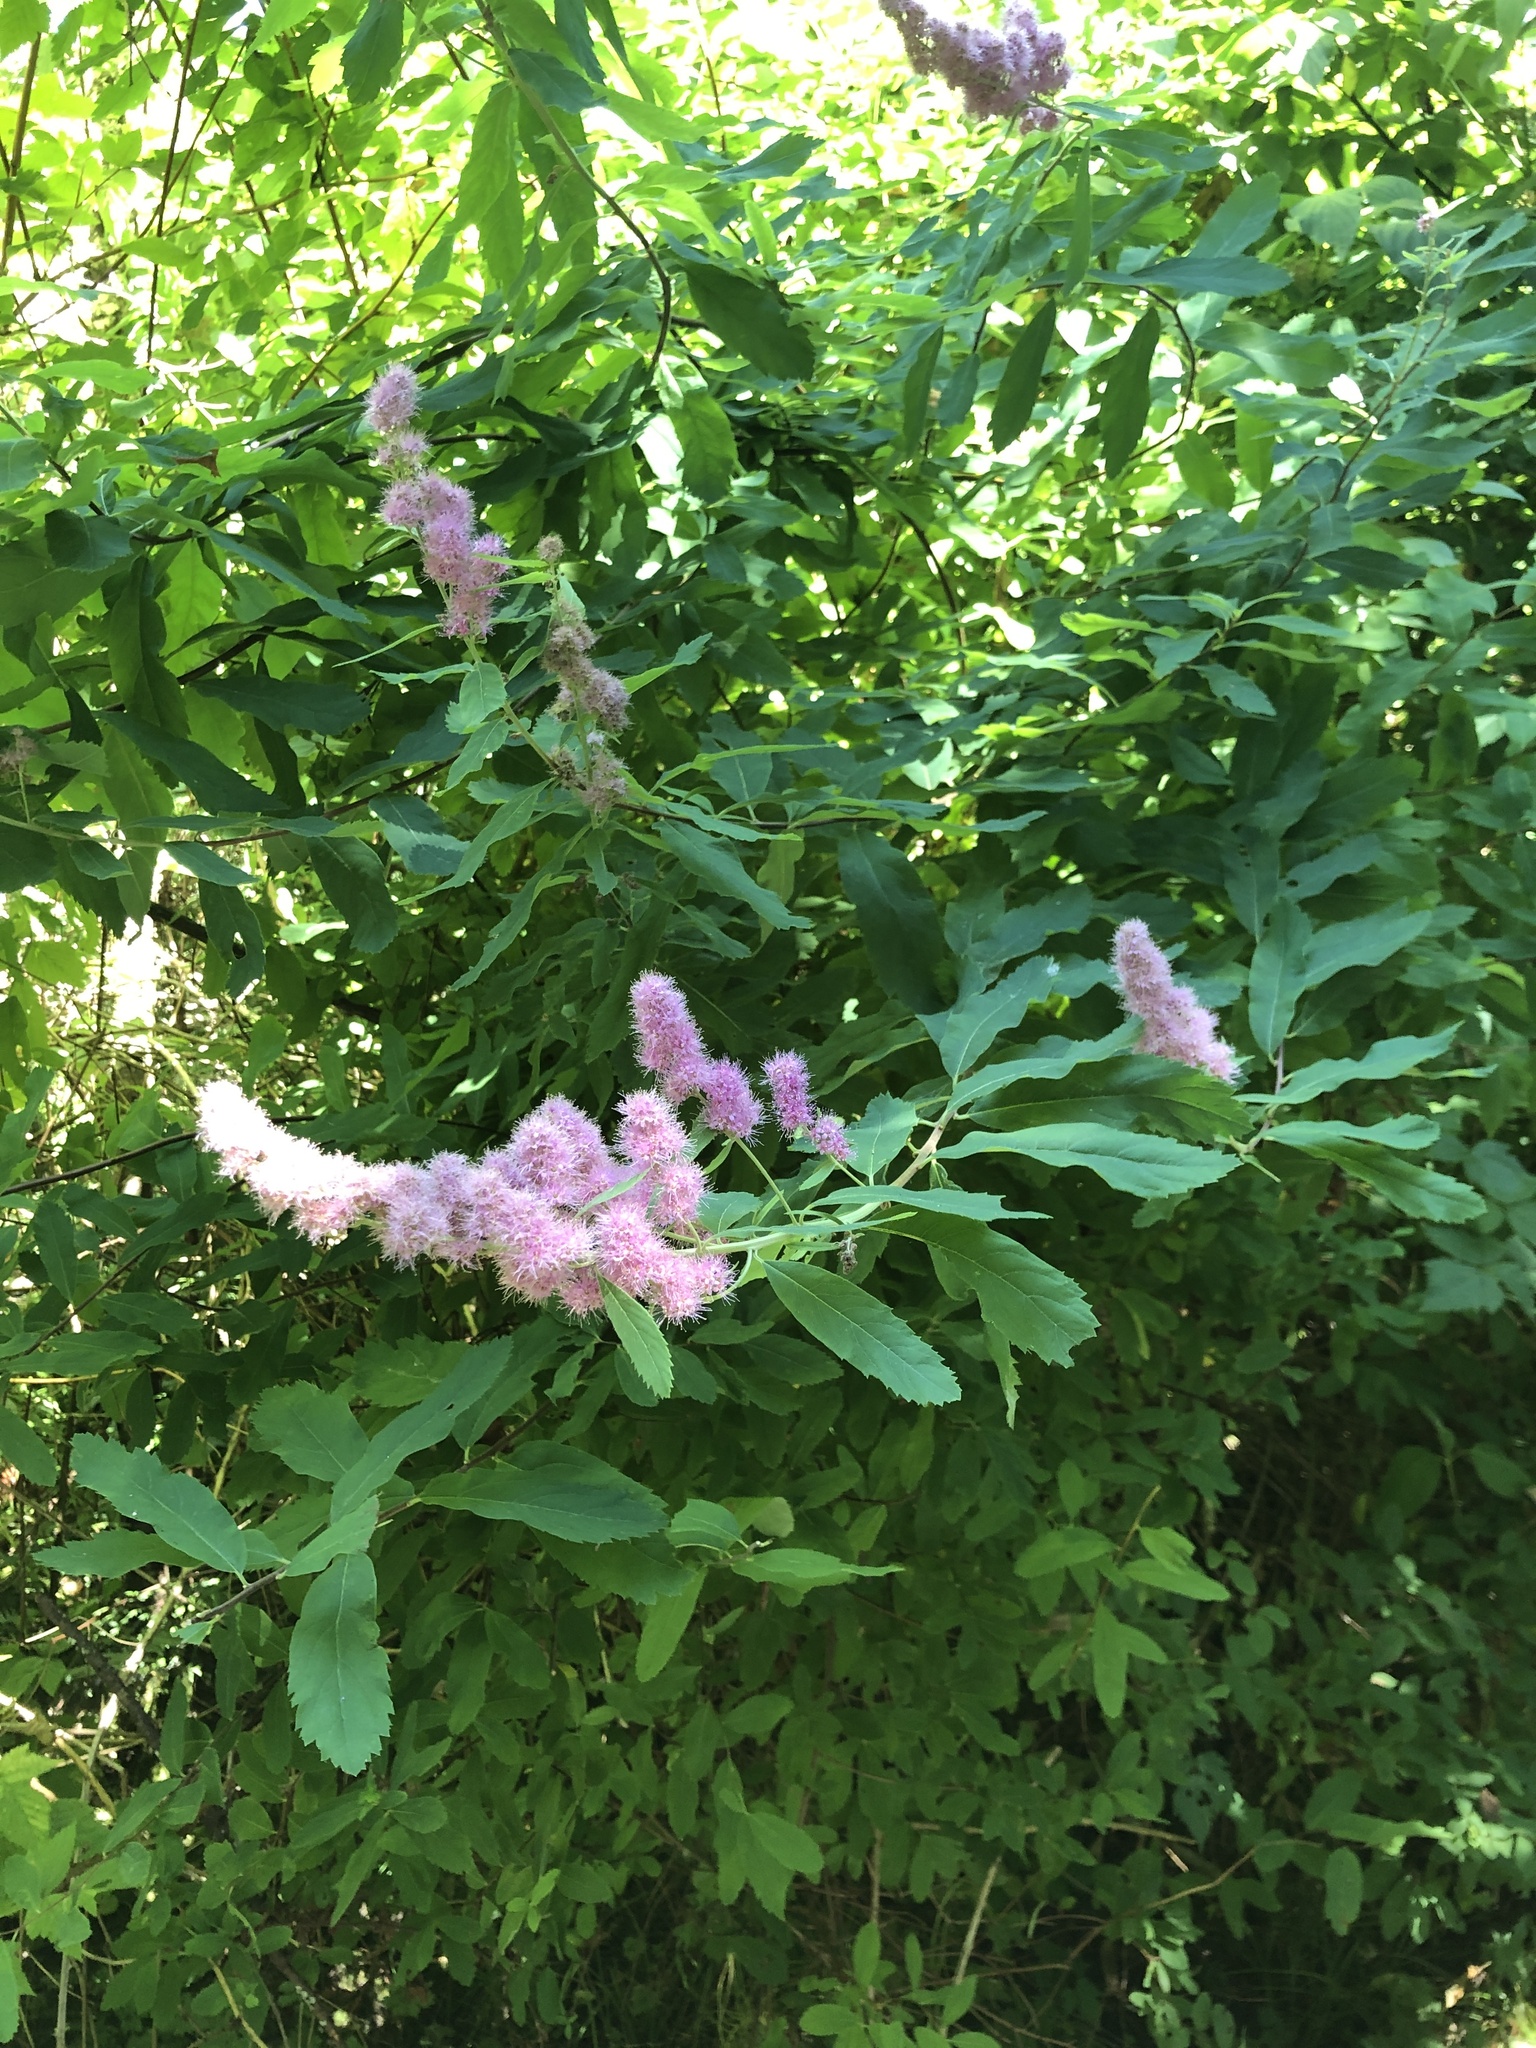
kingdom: Plantae
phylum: Tracheophyta
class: Magnoliopsida
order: Rosales
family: Rosaceae
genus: Spiraea
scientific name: Spiraea douglasii
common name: Steeplebush
